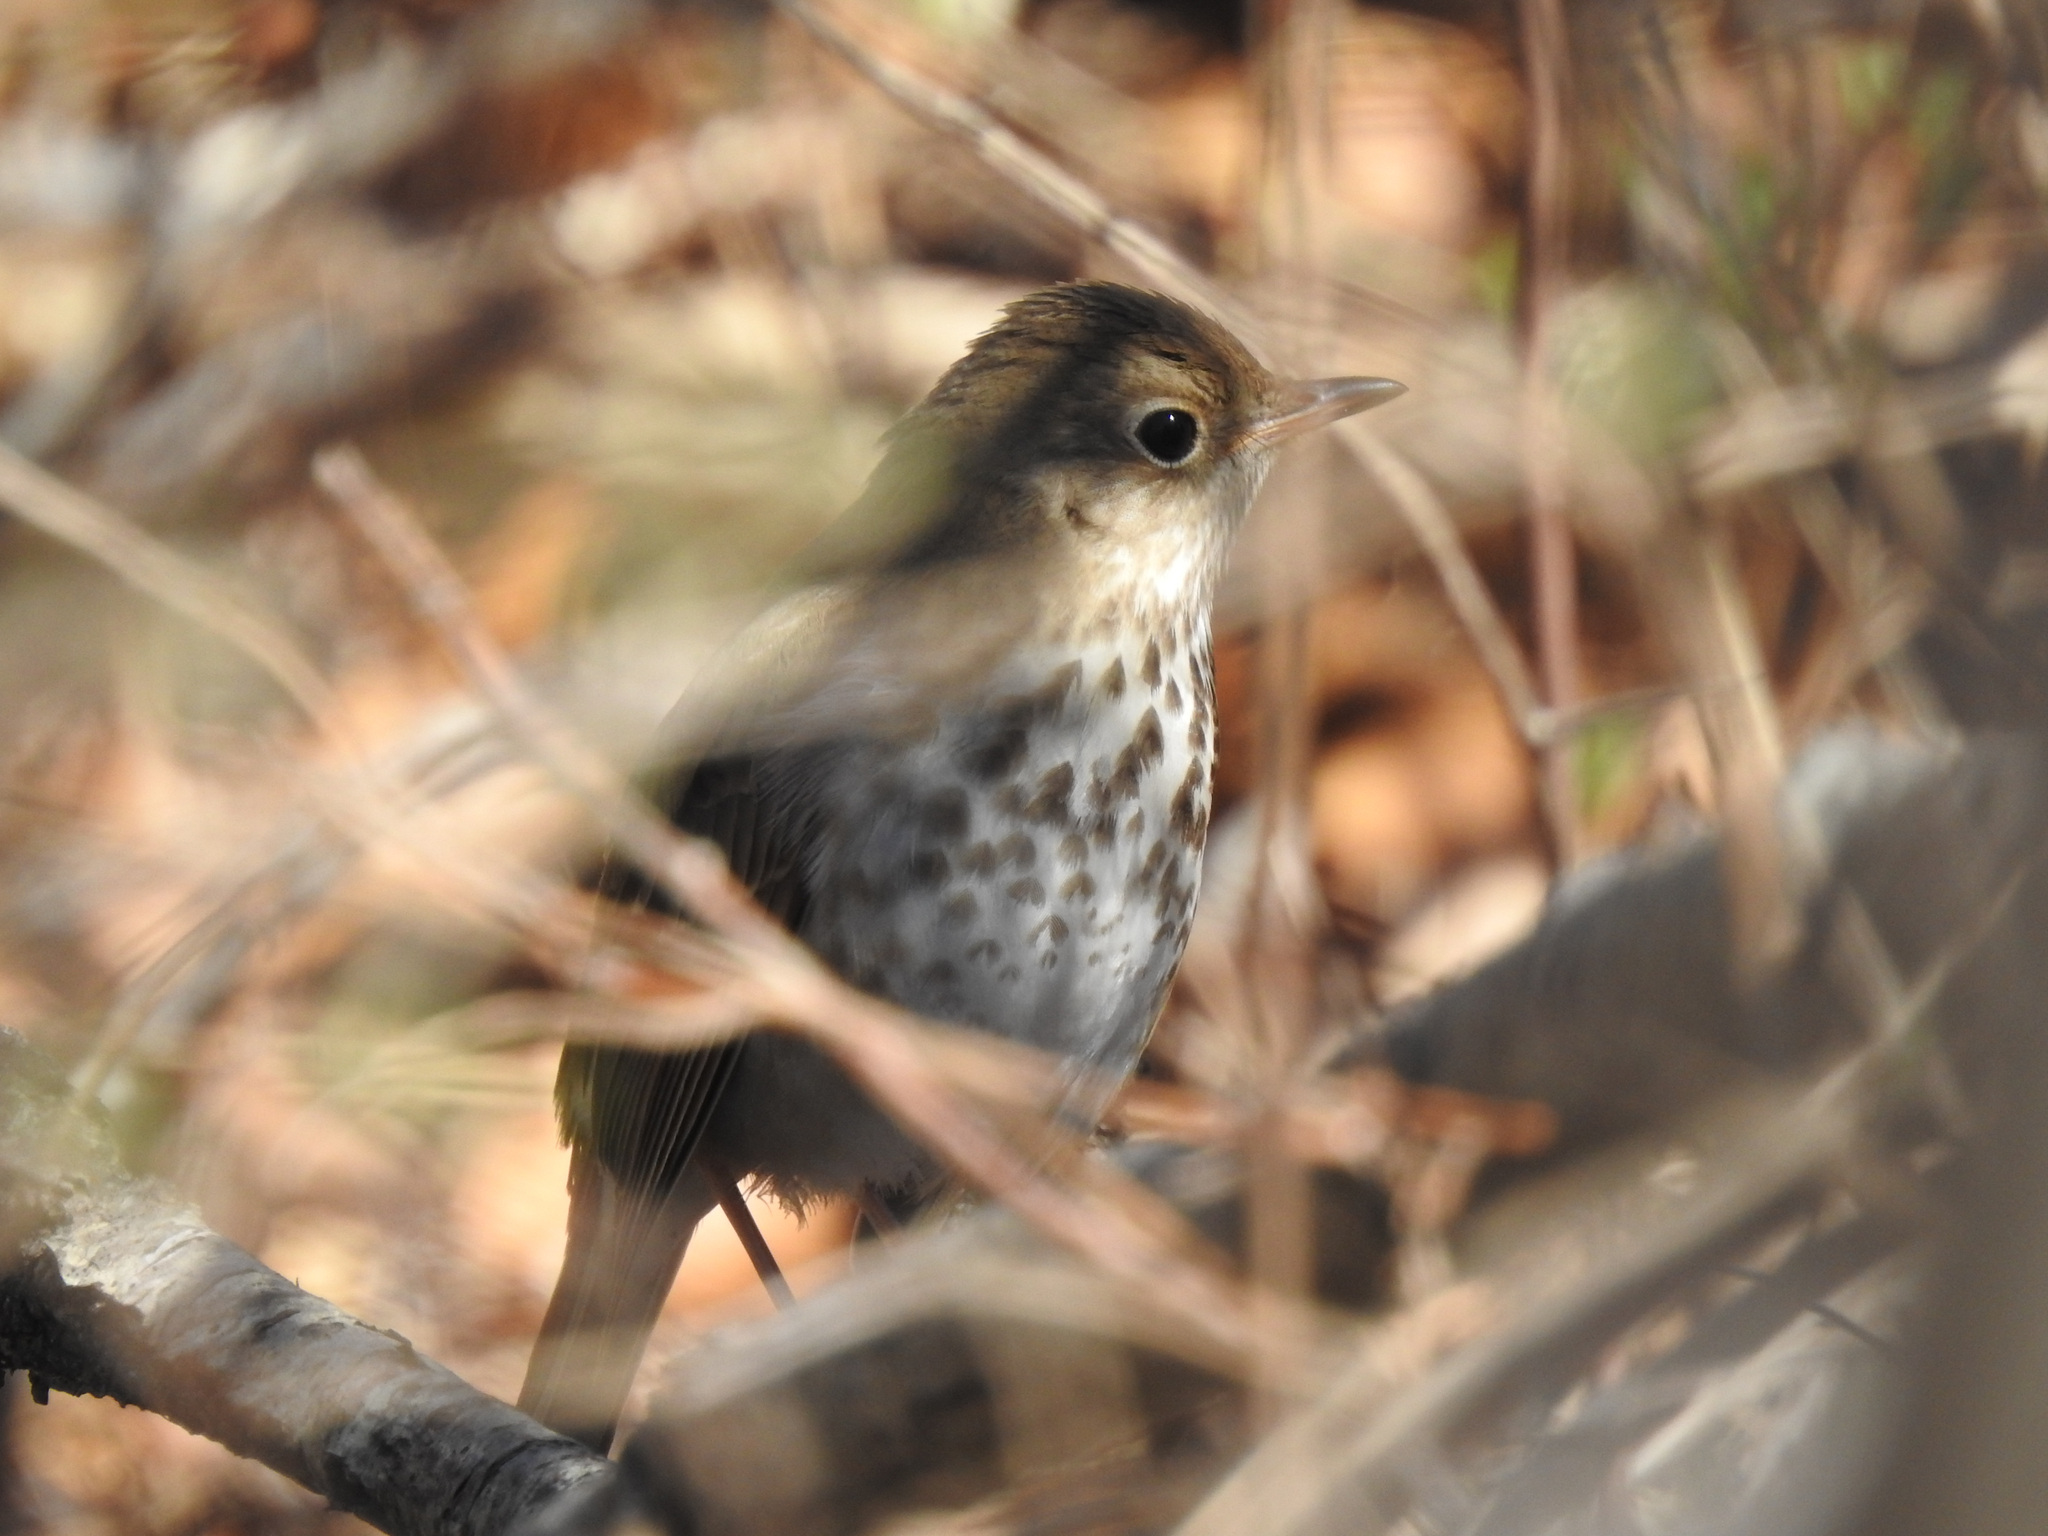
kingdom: Animalia
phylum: Chordata
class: Aves
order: Passeriformes
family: Turdidae
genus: Catharus
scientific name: Catharus guttatus
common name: Hermit thrush
